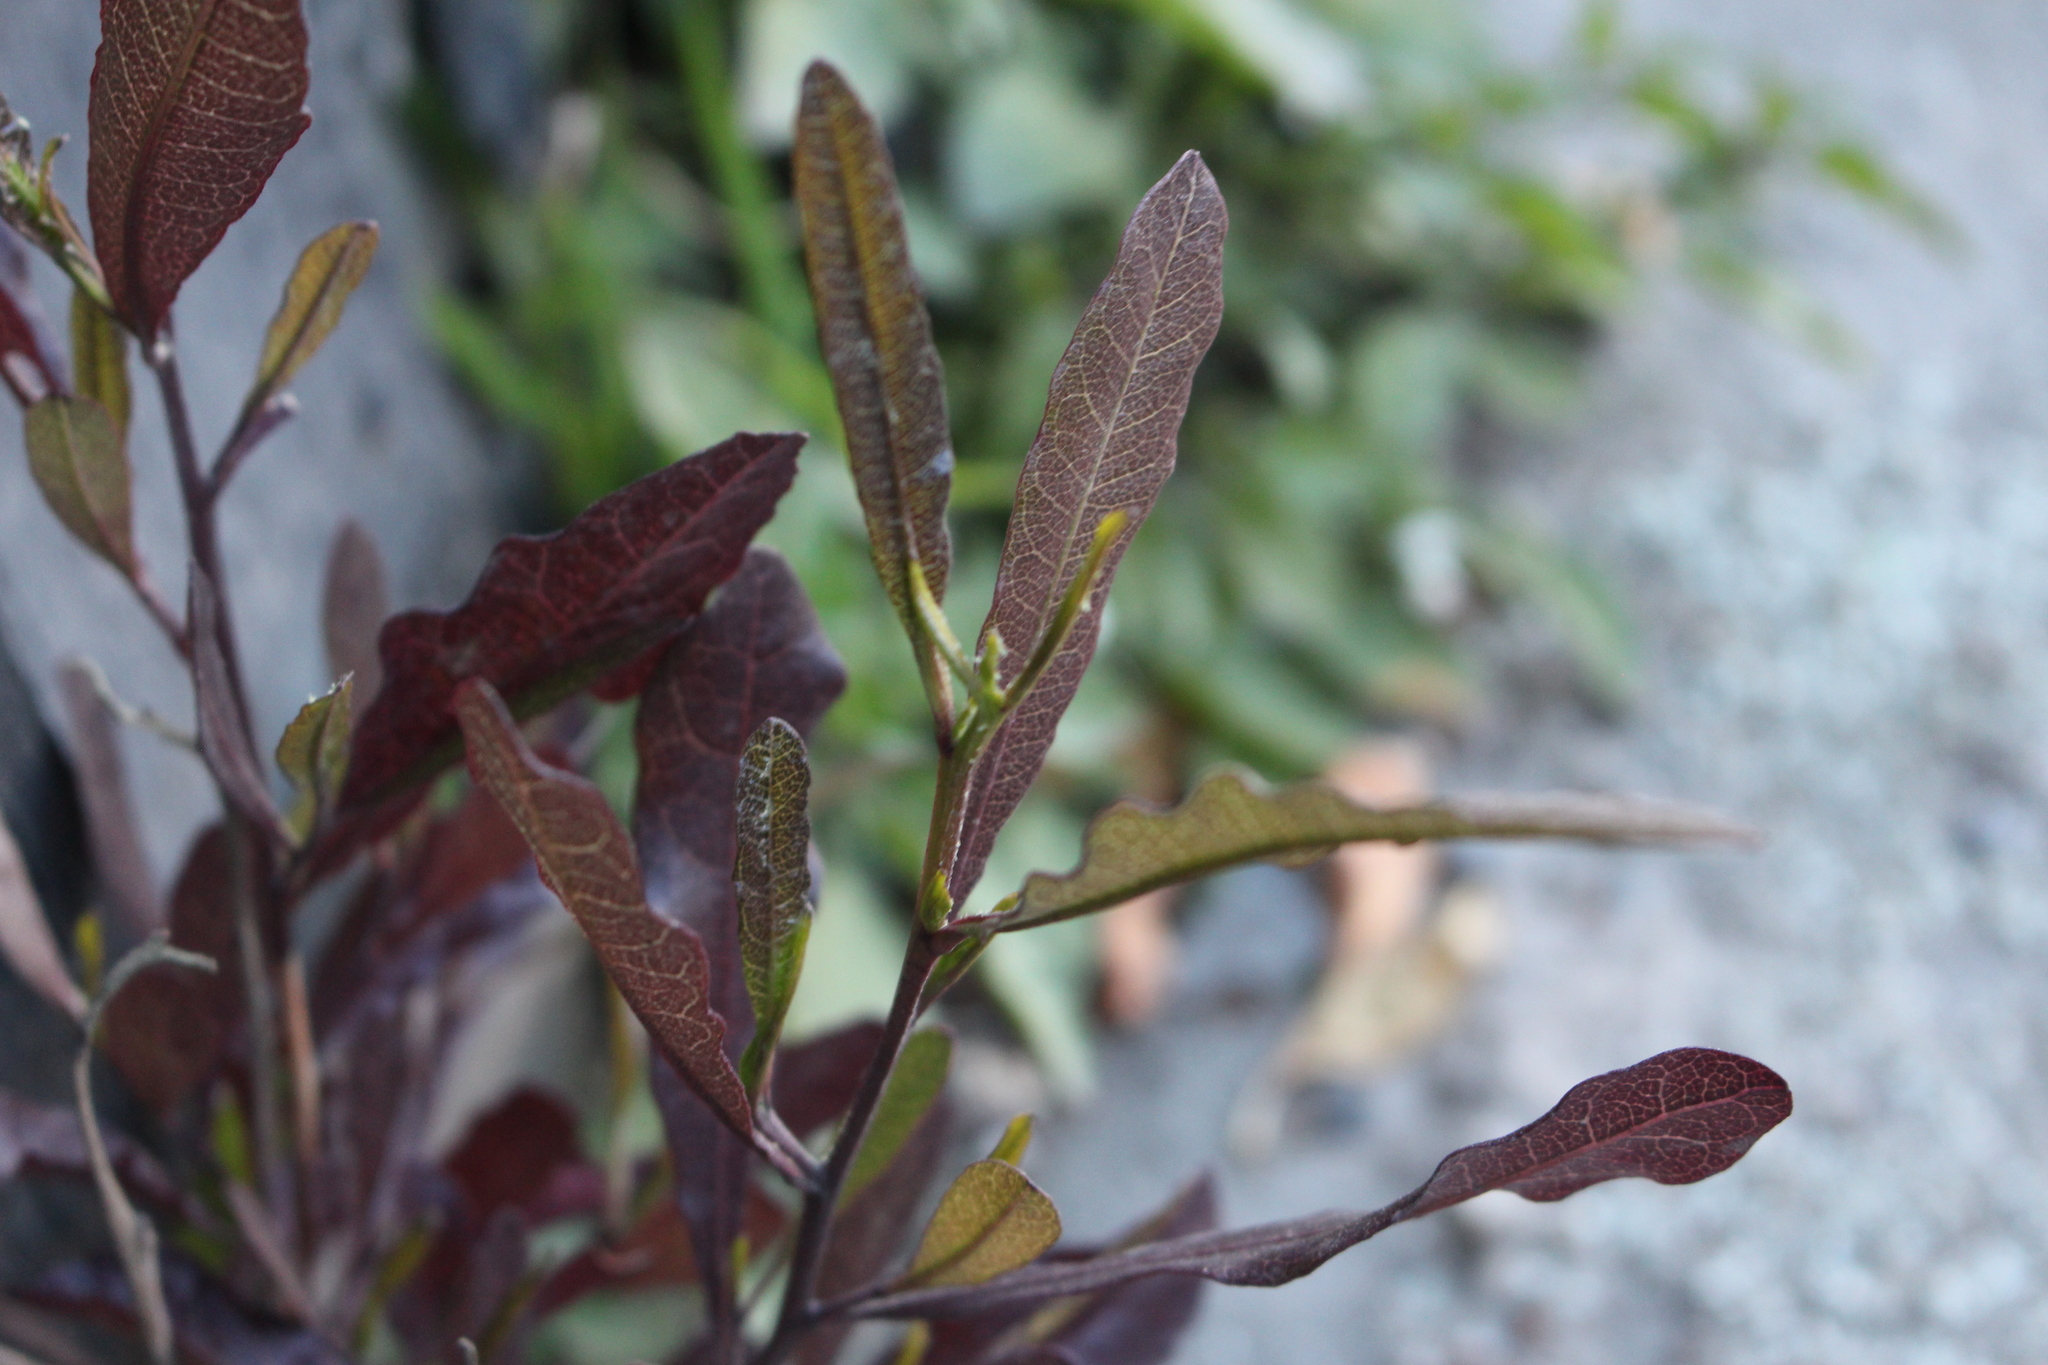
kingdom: Plantae
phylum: Tracheophyta
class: Magnoliopsida
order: Sapindales
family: Sapindaceae
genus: Dodonaea
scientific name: Dodonaea viscosa
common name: Hopbush
